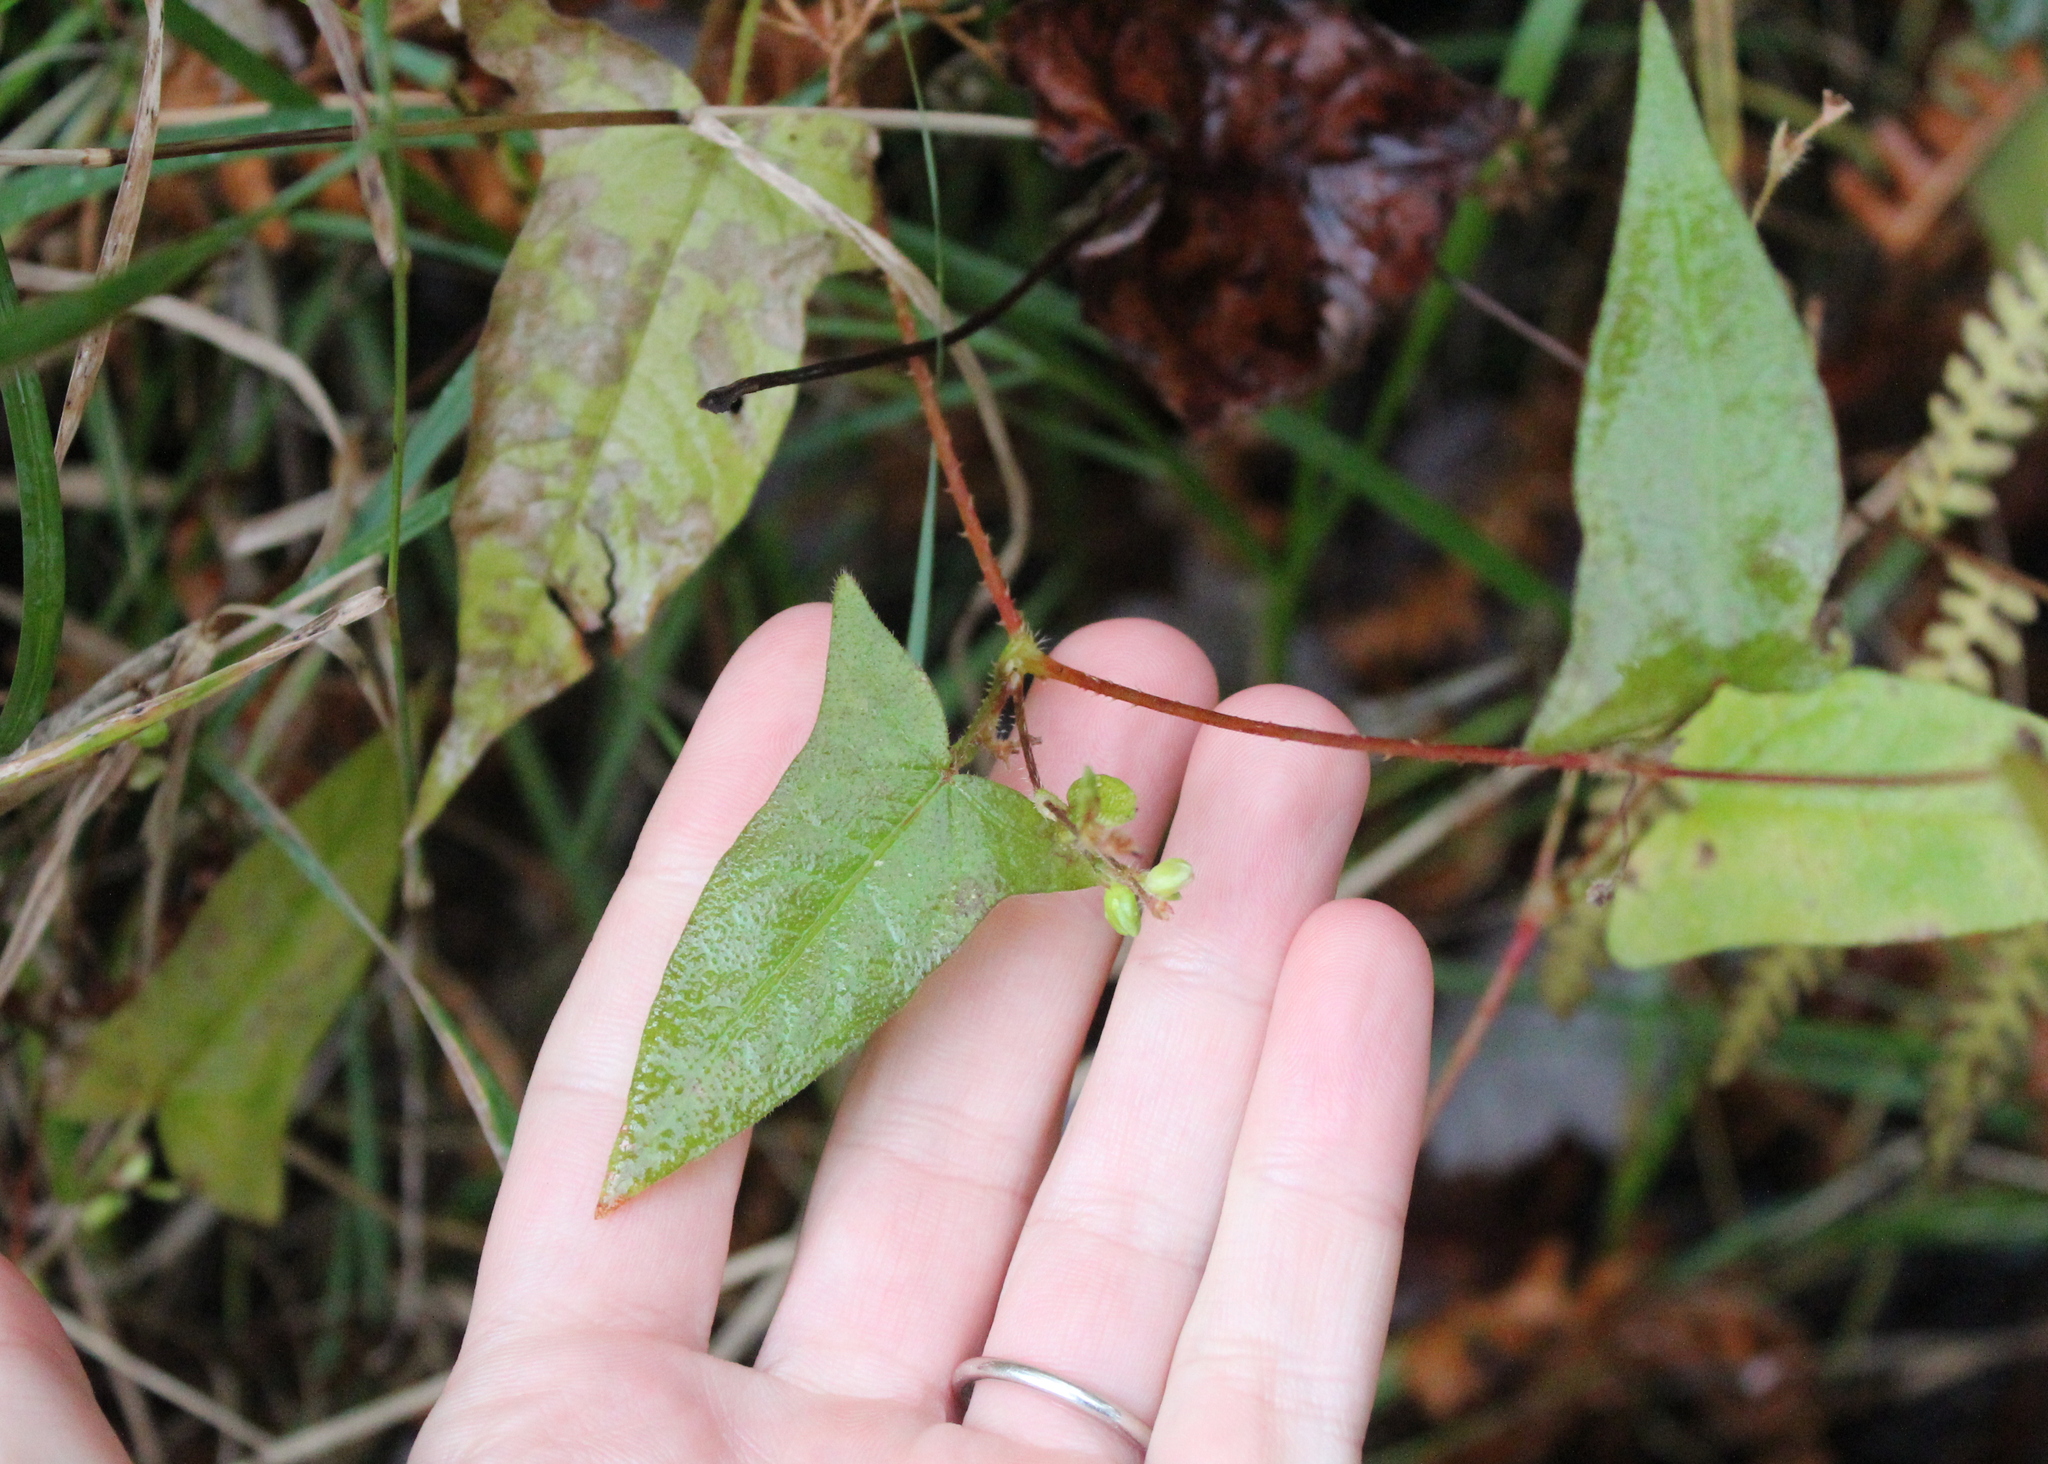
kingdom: Plantae
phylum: Tracheophyta
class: Magnoliopsida
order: Caryophyllales
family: Polygonaceae
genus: Persicaria
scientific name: Persicaria arifolia
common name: Halberd-leaved tear-thumb
